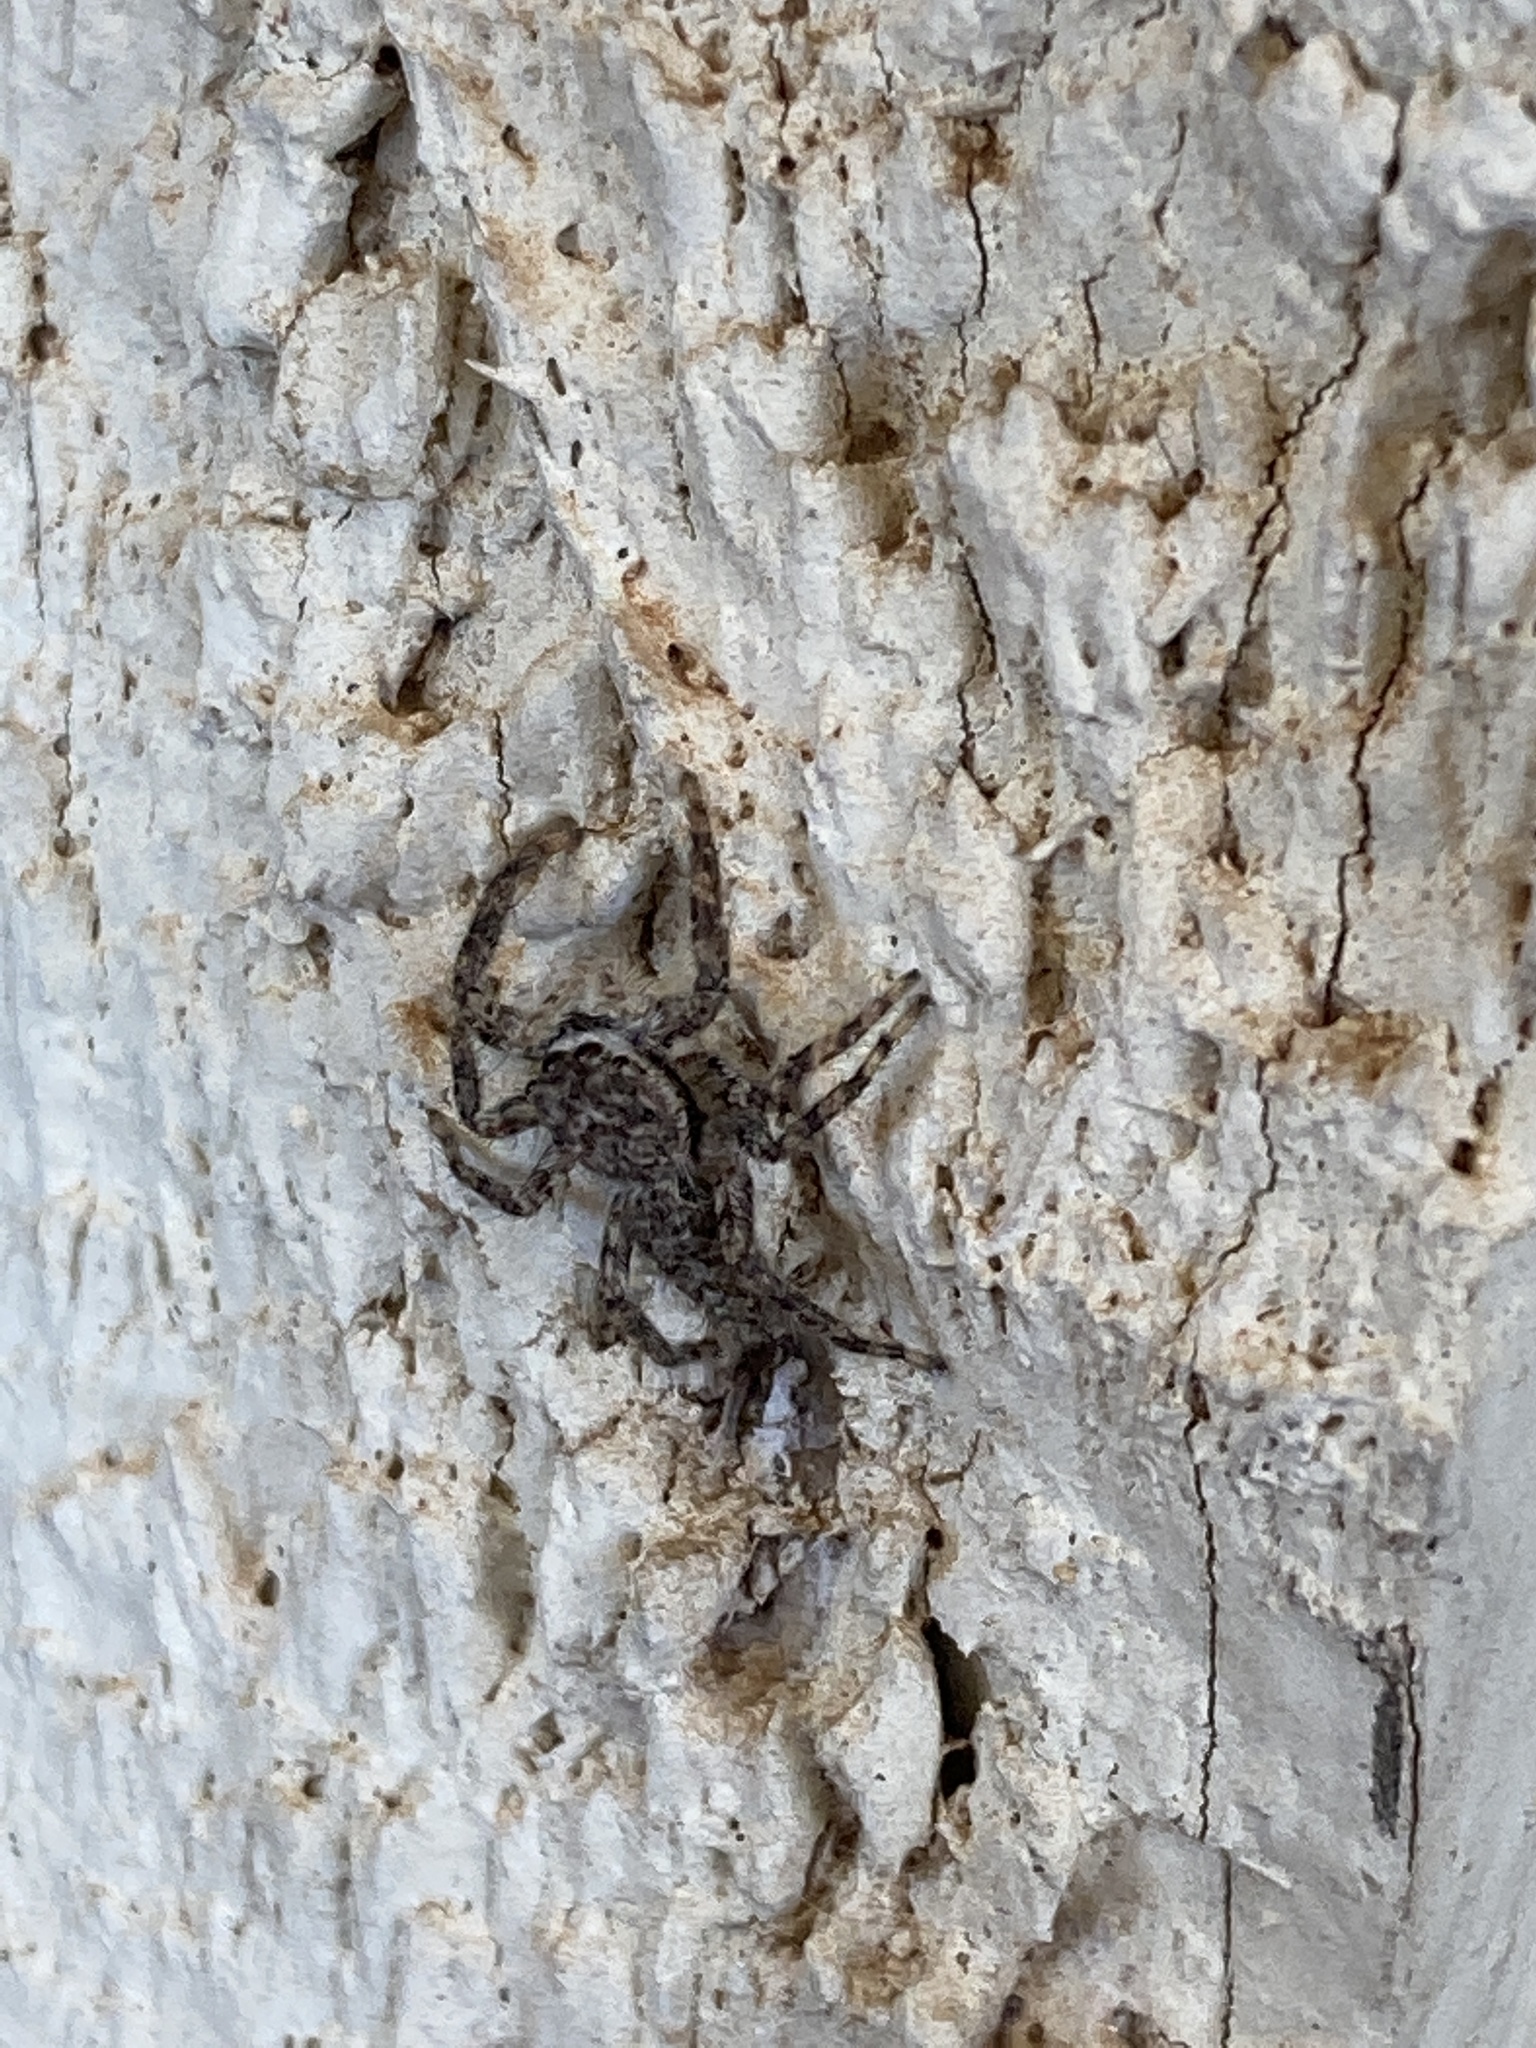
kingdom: Animalia
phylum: Arthropoda
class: Arachnida
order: Araneae
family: Salticidae
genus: Platycryptus
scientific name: Platycryptus undatus
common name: Tan jumping spider
